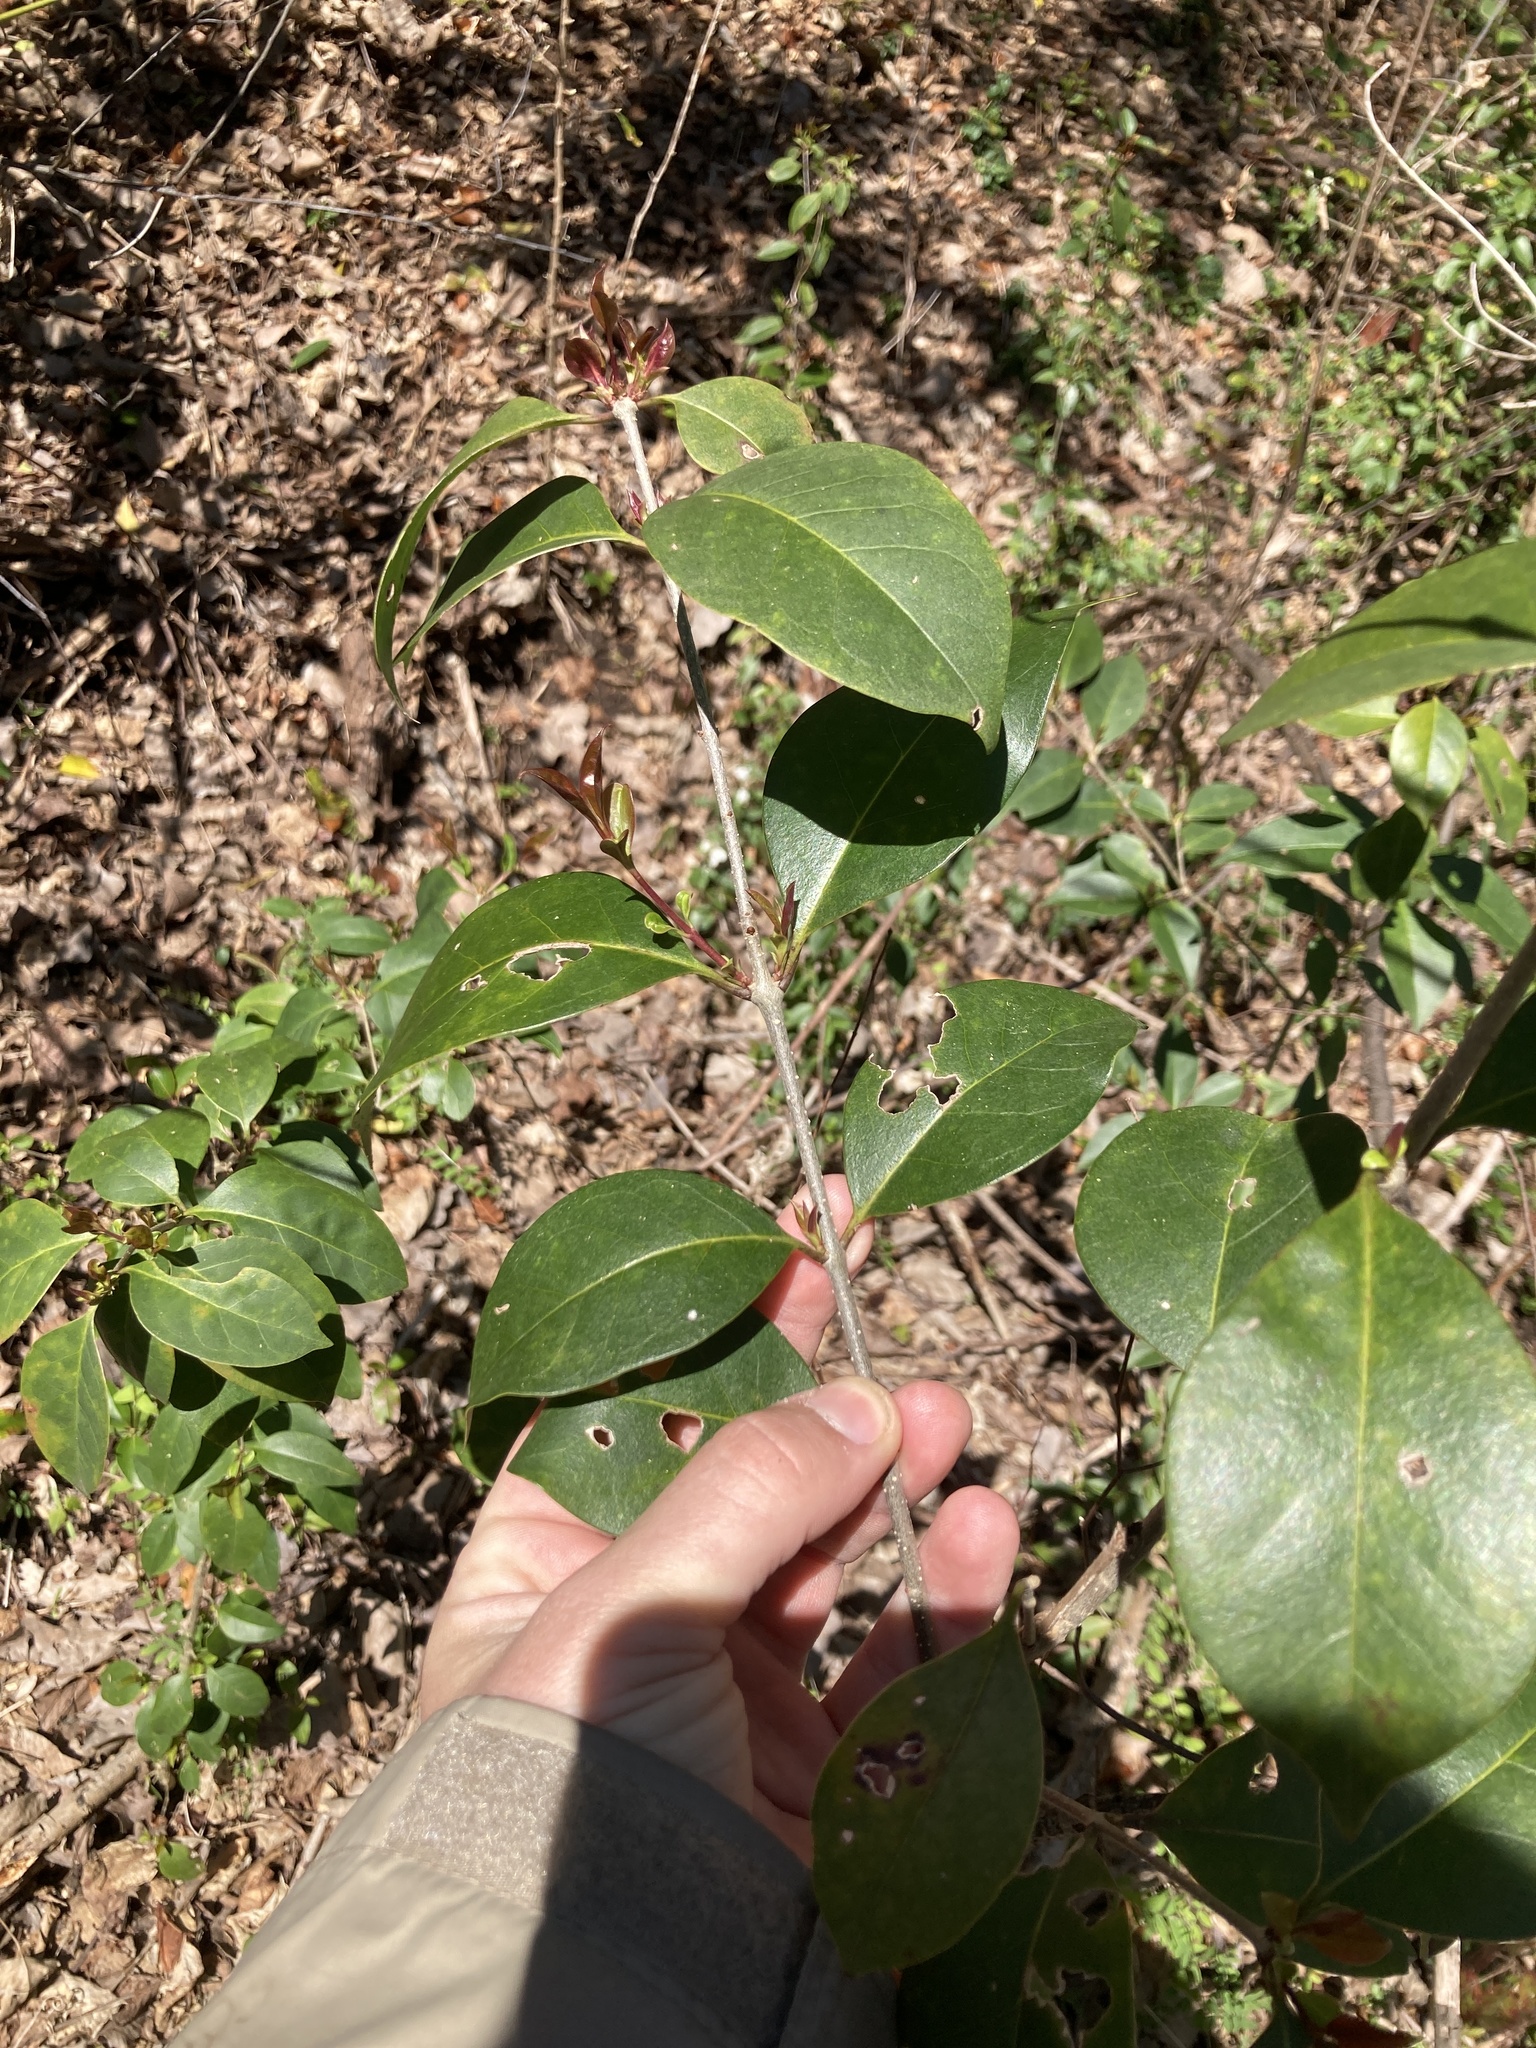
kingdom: Plantae
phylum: Tracheophyta
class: Magnoliopsida
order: Lamiales
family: Oleaceae
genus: Ligustrum
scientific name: Ligustrum lucidum
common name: Glossy privet
